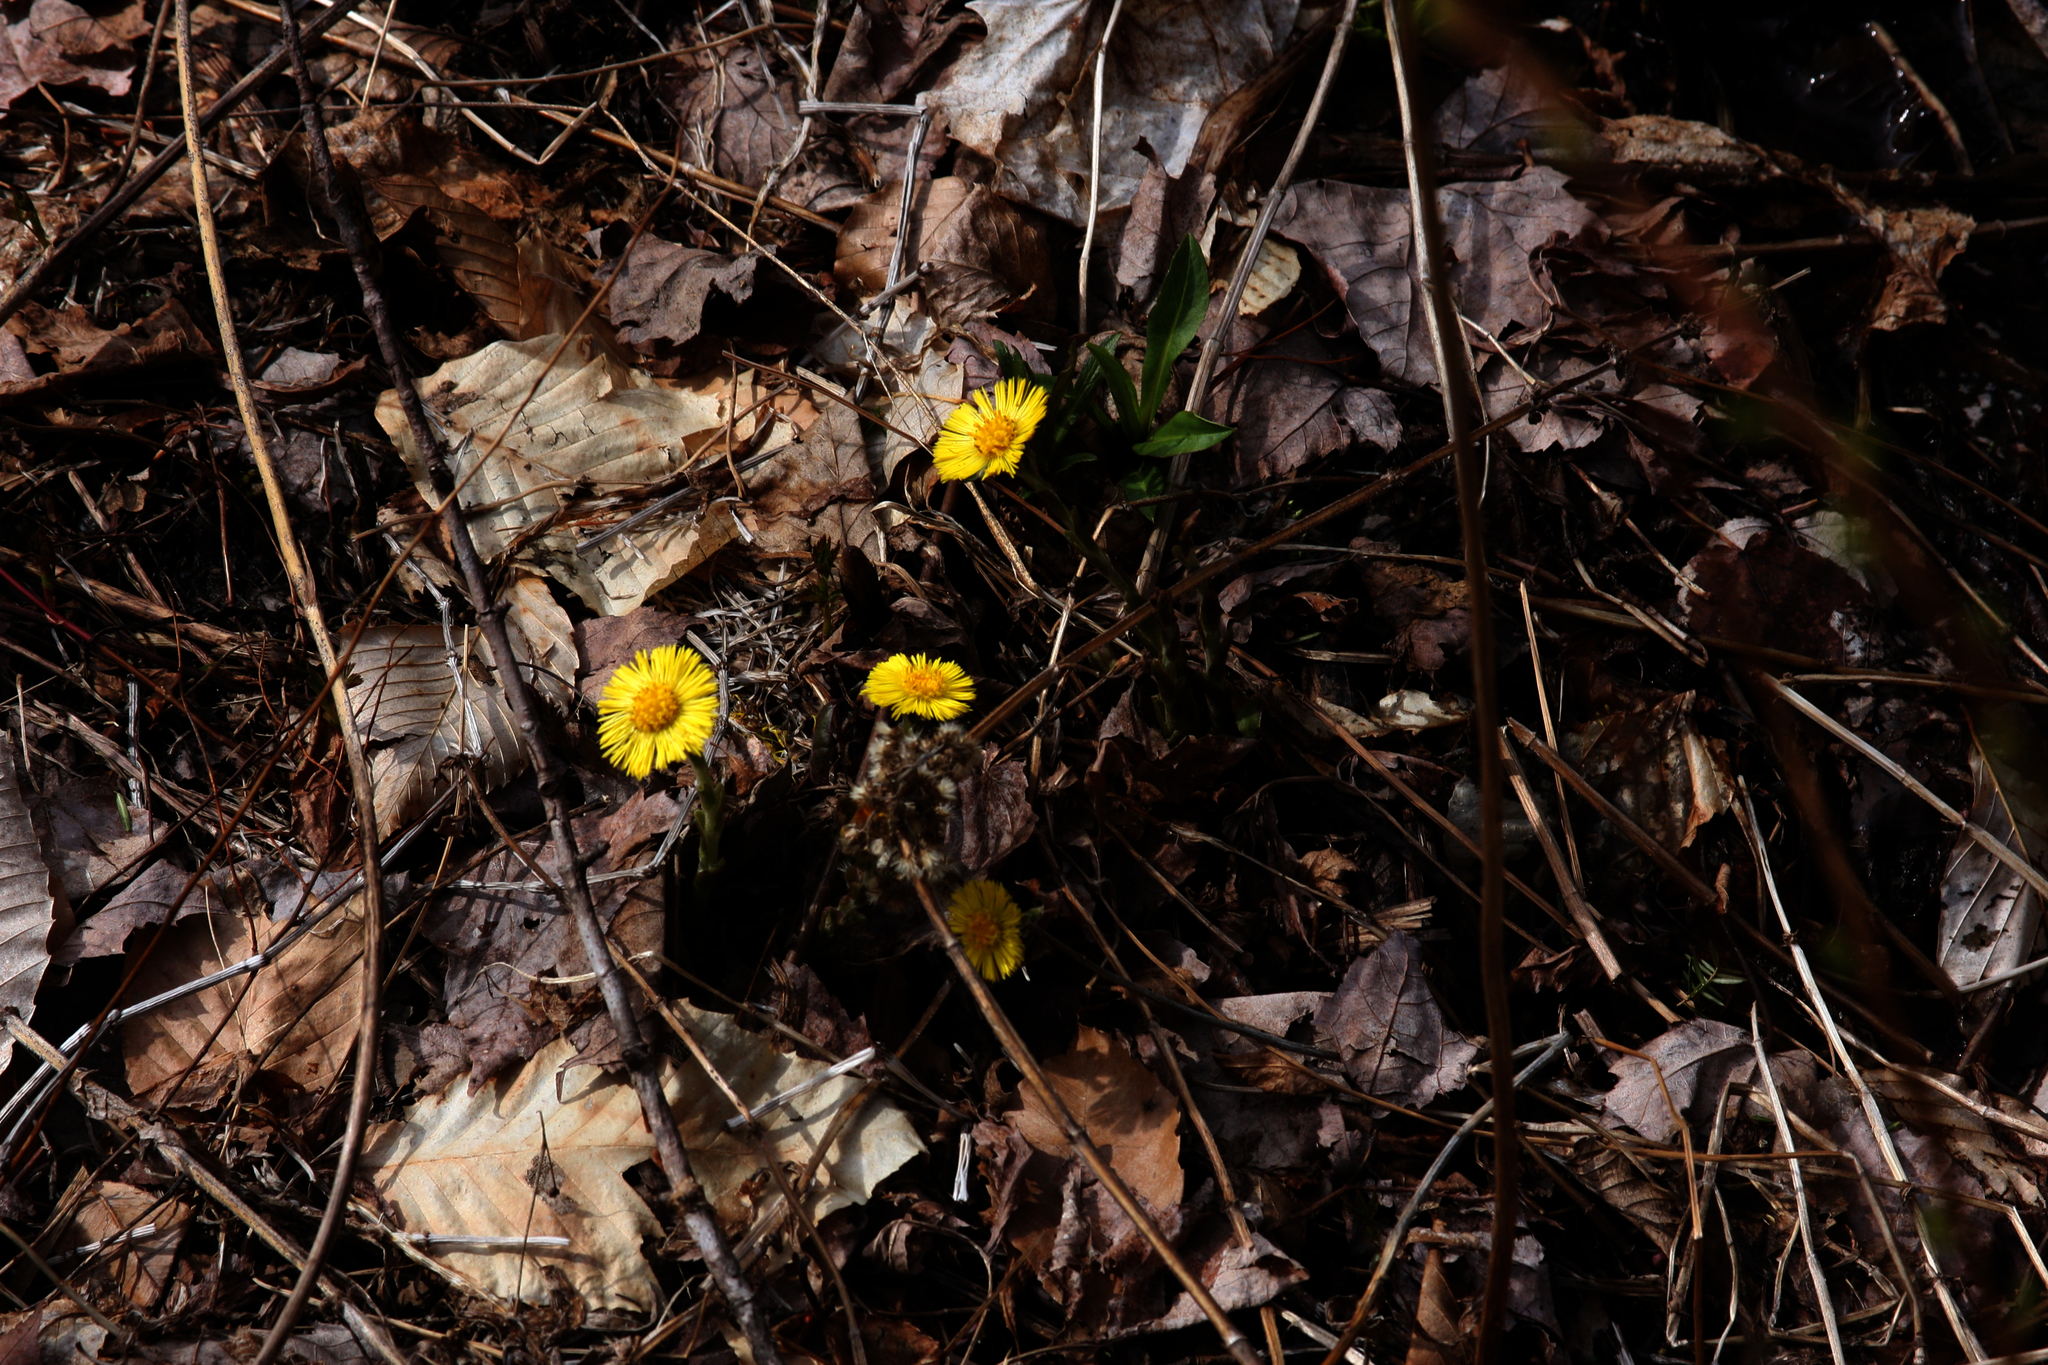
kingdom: Plantae
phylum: Tracheophyta
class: Magnoliopsida
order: Asterales
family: Asteraceae
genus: Tussilago
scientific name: Tussilago farfara
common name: Coltsfoot
